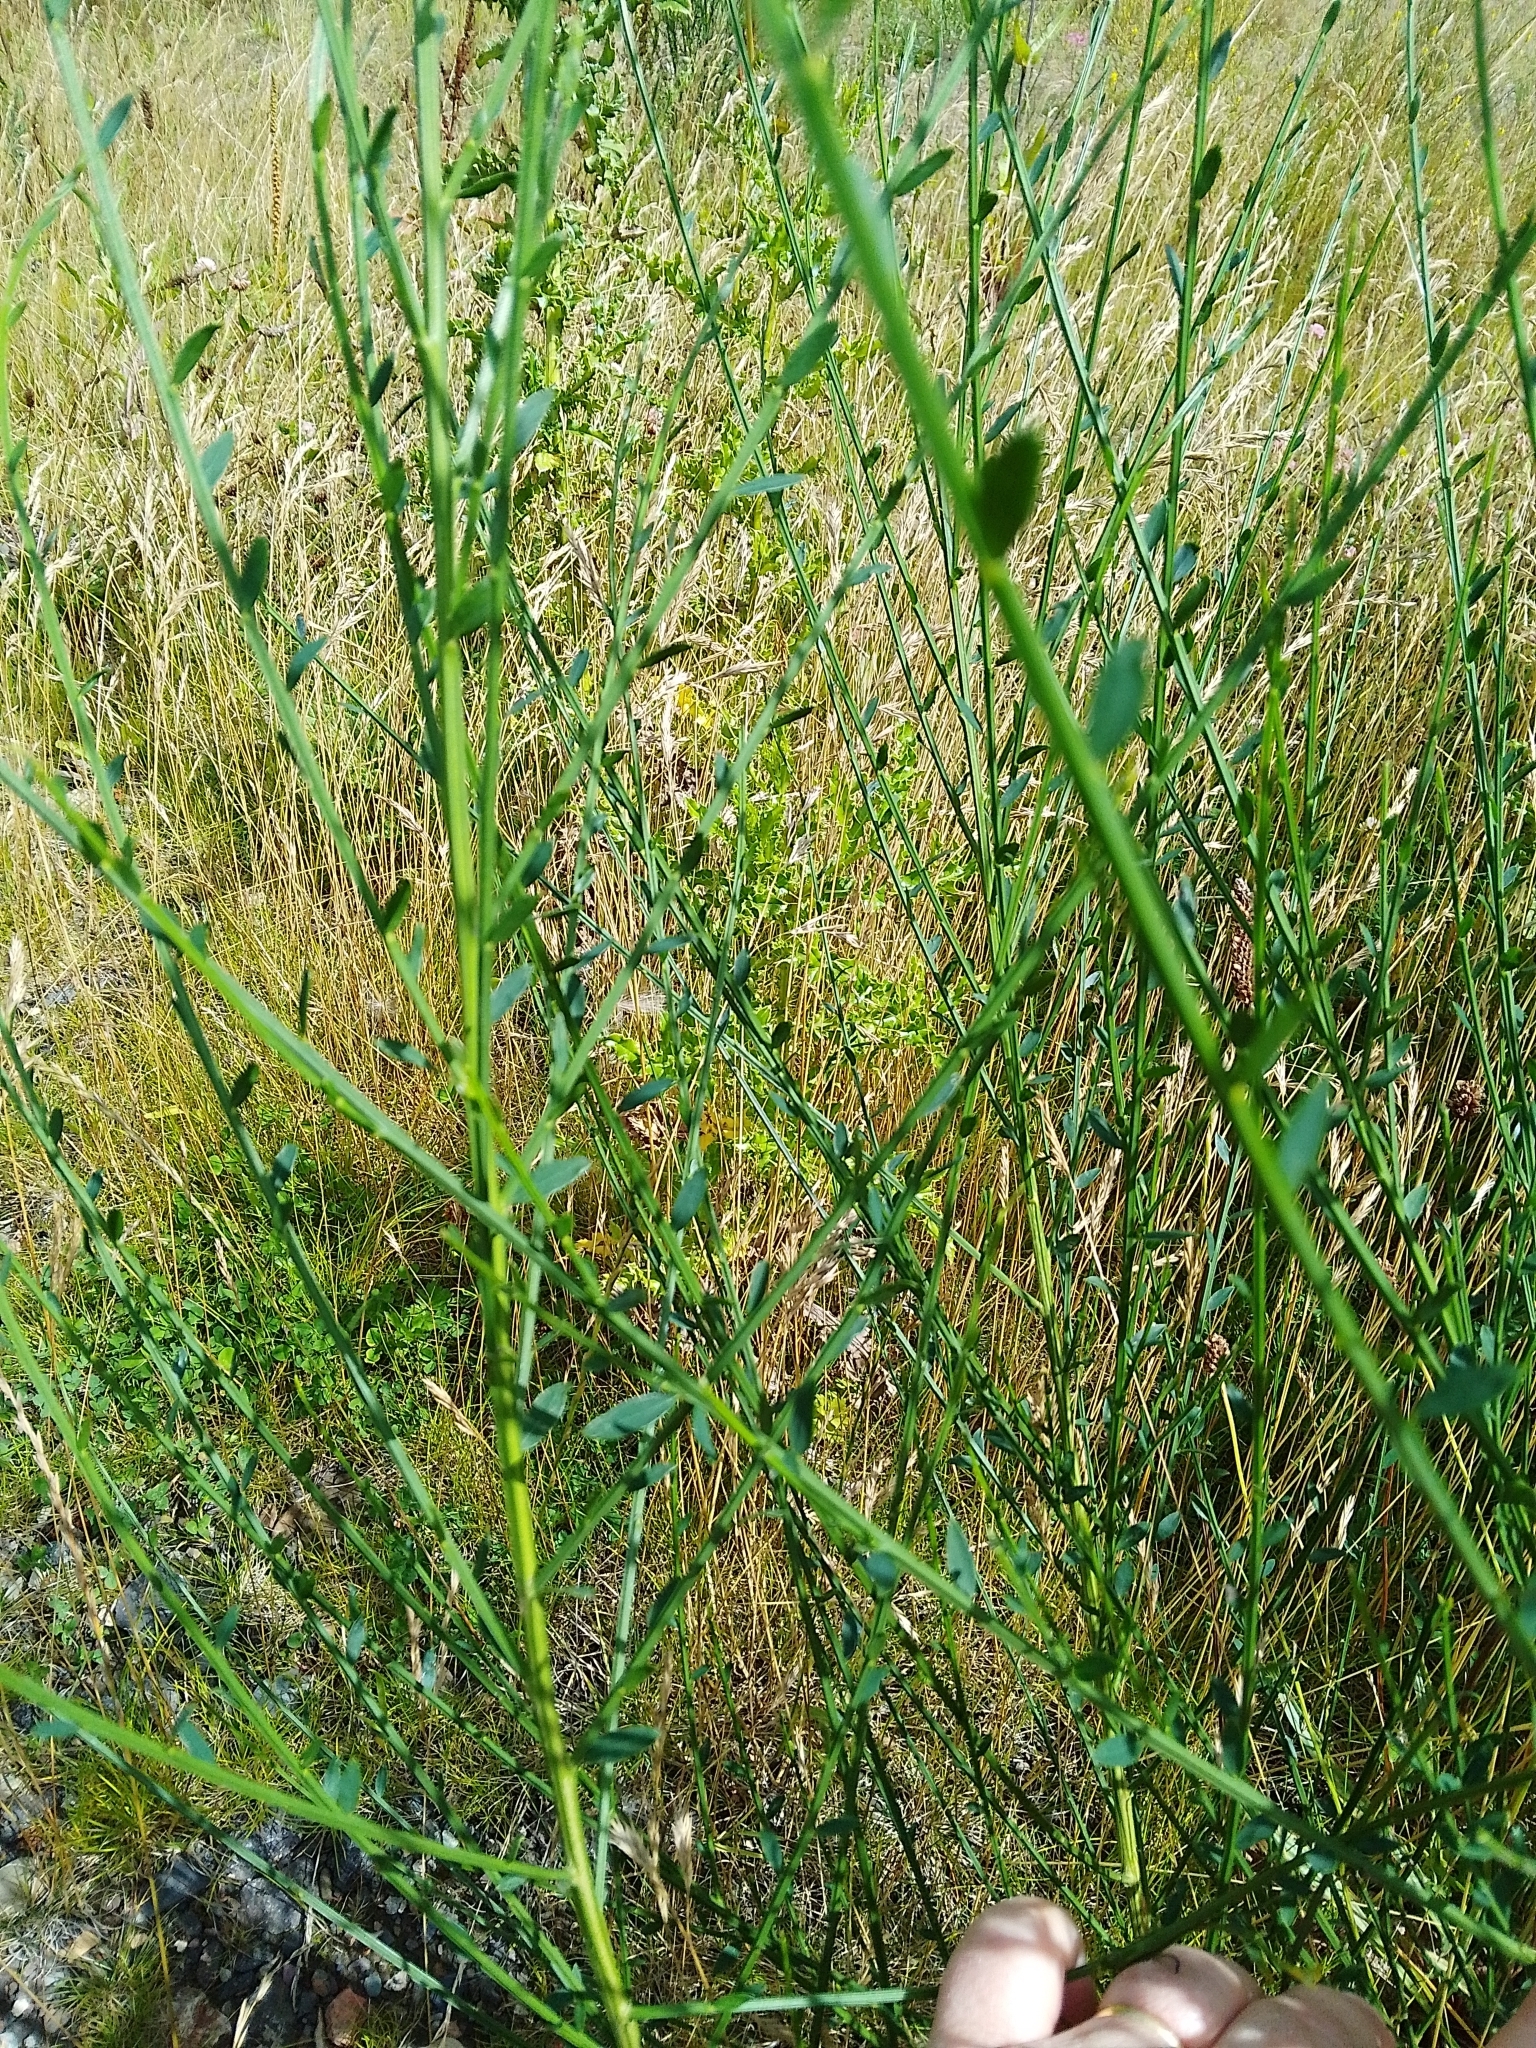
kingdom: Plantae
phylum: Tracheophyta
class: Magnoliopsida
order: Fabales
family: Fabaceae
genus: Cytisus
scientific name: Cytisus scoparius
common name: Scotch broom
